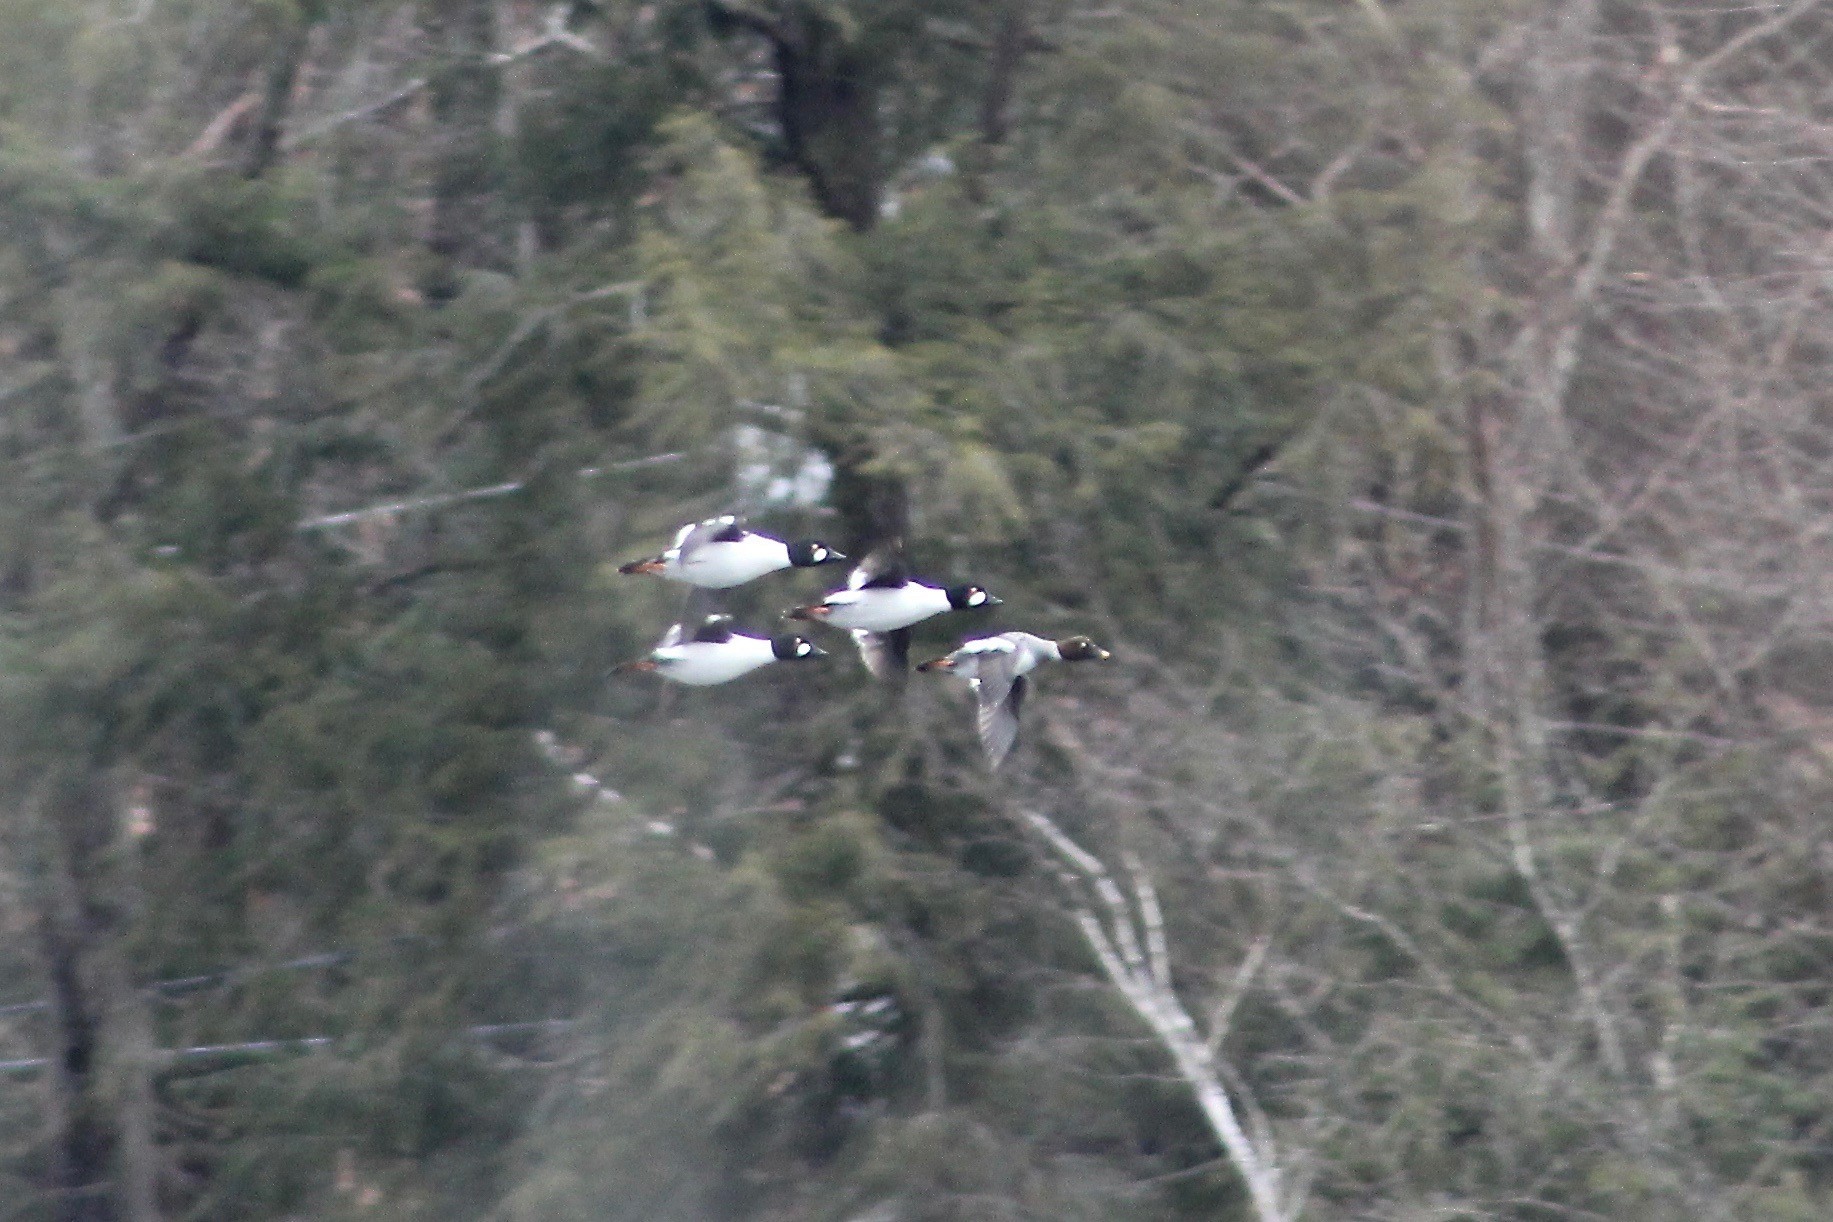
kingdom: Animalia
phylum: Chordata
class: Aves
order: Anseriformes
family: Anatidae
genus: Bucephala
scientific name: Bucephala clangula
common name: Common goldeneye
